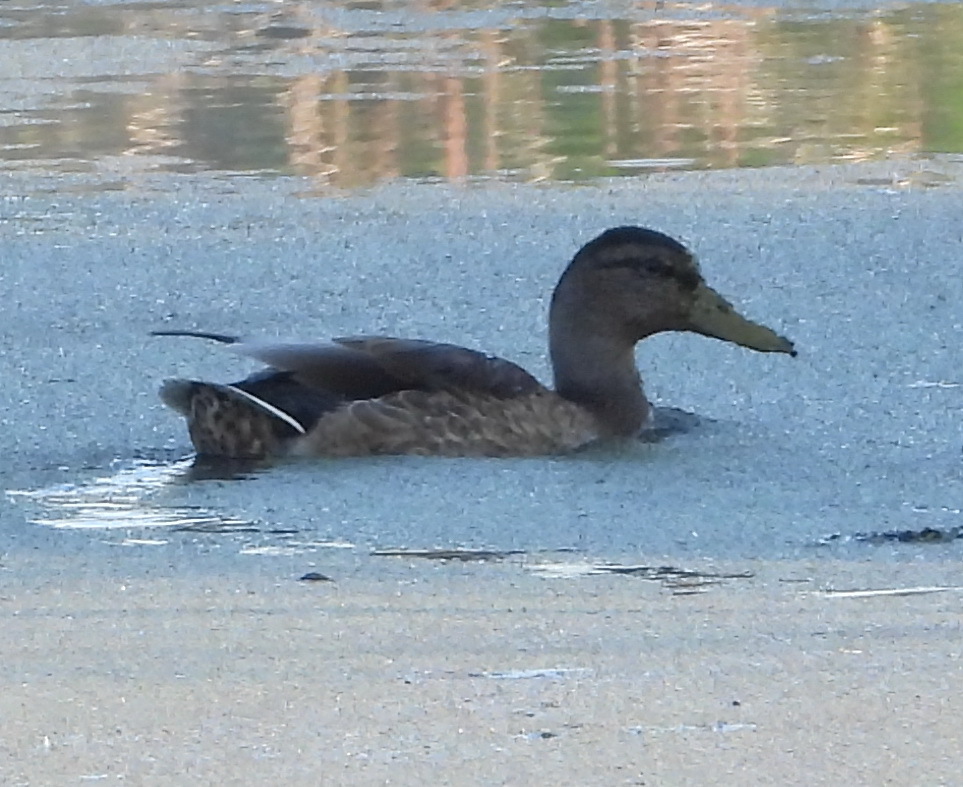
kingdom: Animalia
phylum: Chordata
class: Aves
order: Anseriformes
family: Anatidae
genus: Anas
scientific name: Anas platyrhynchos
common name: Mallard
